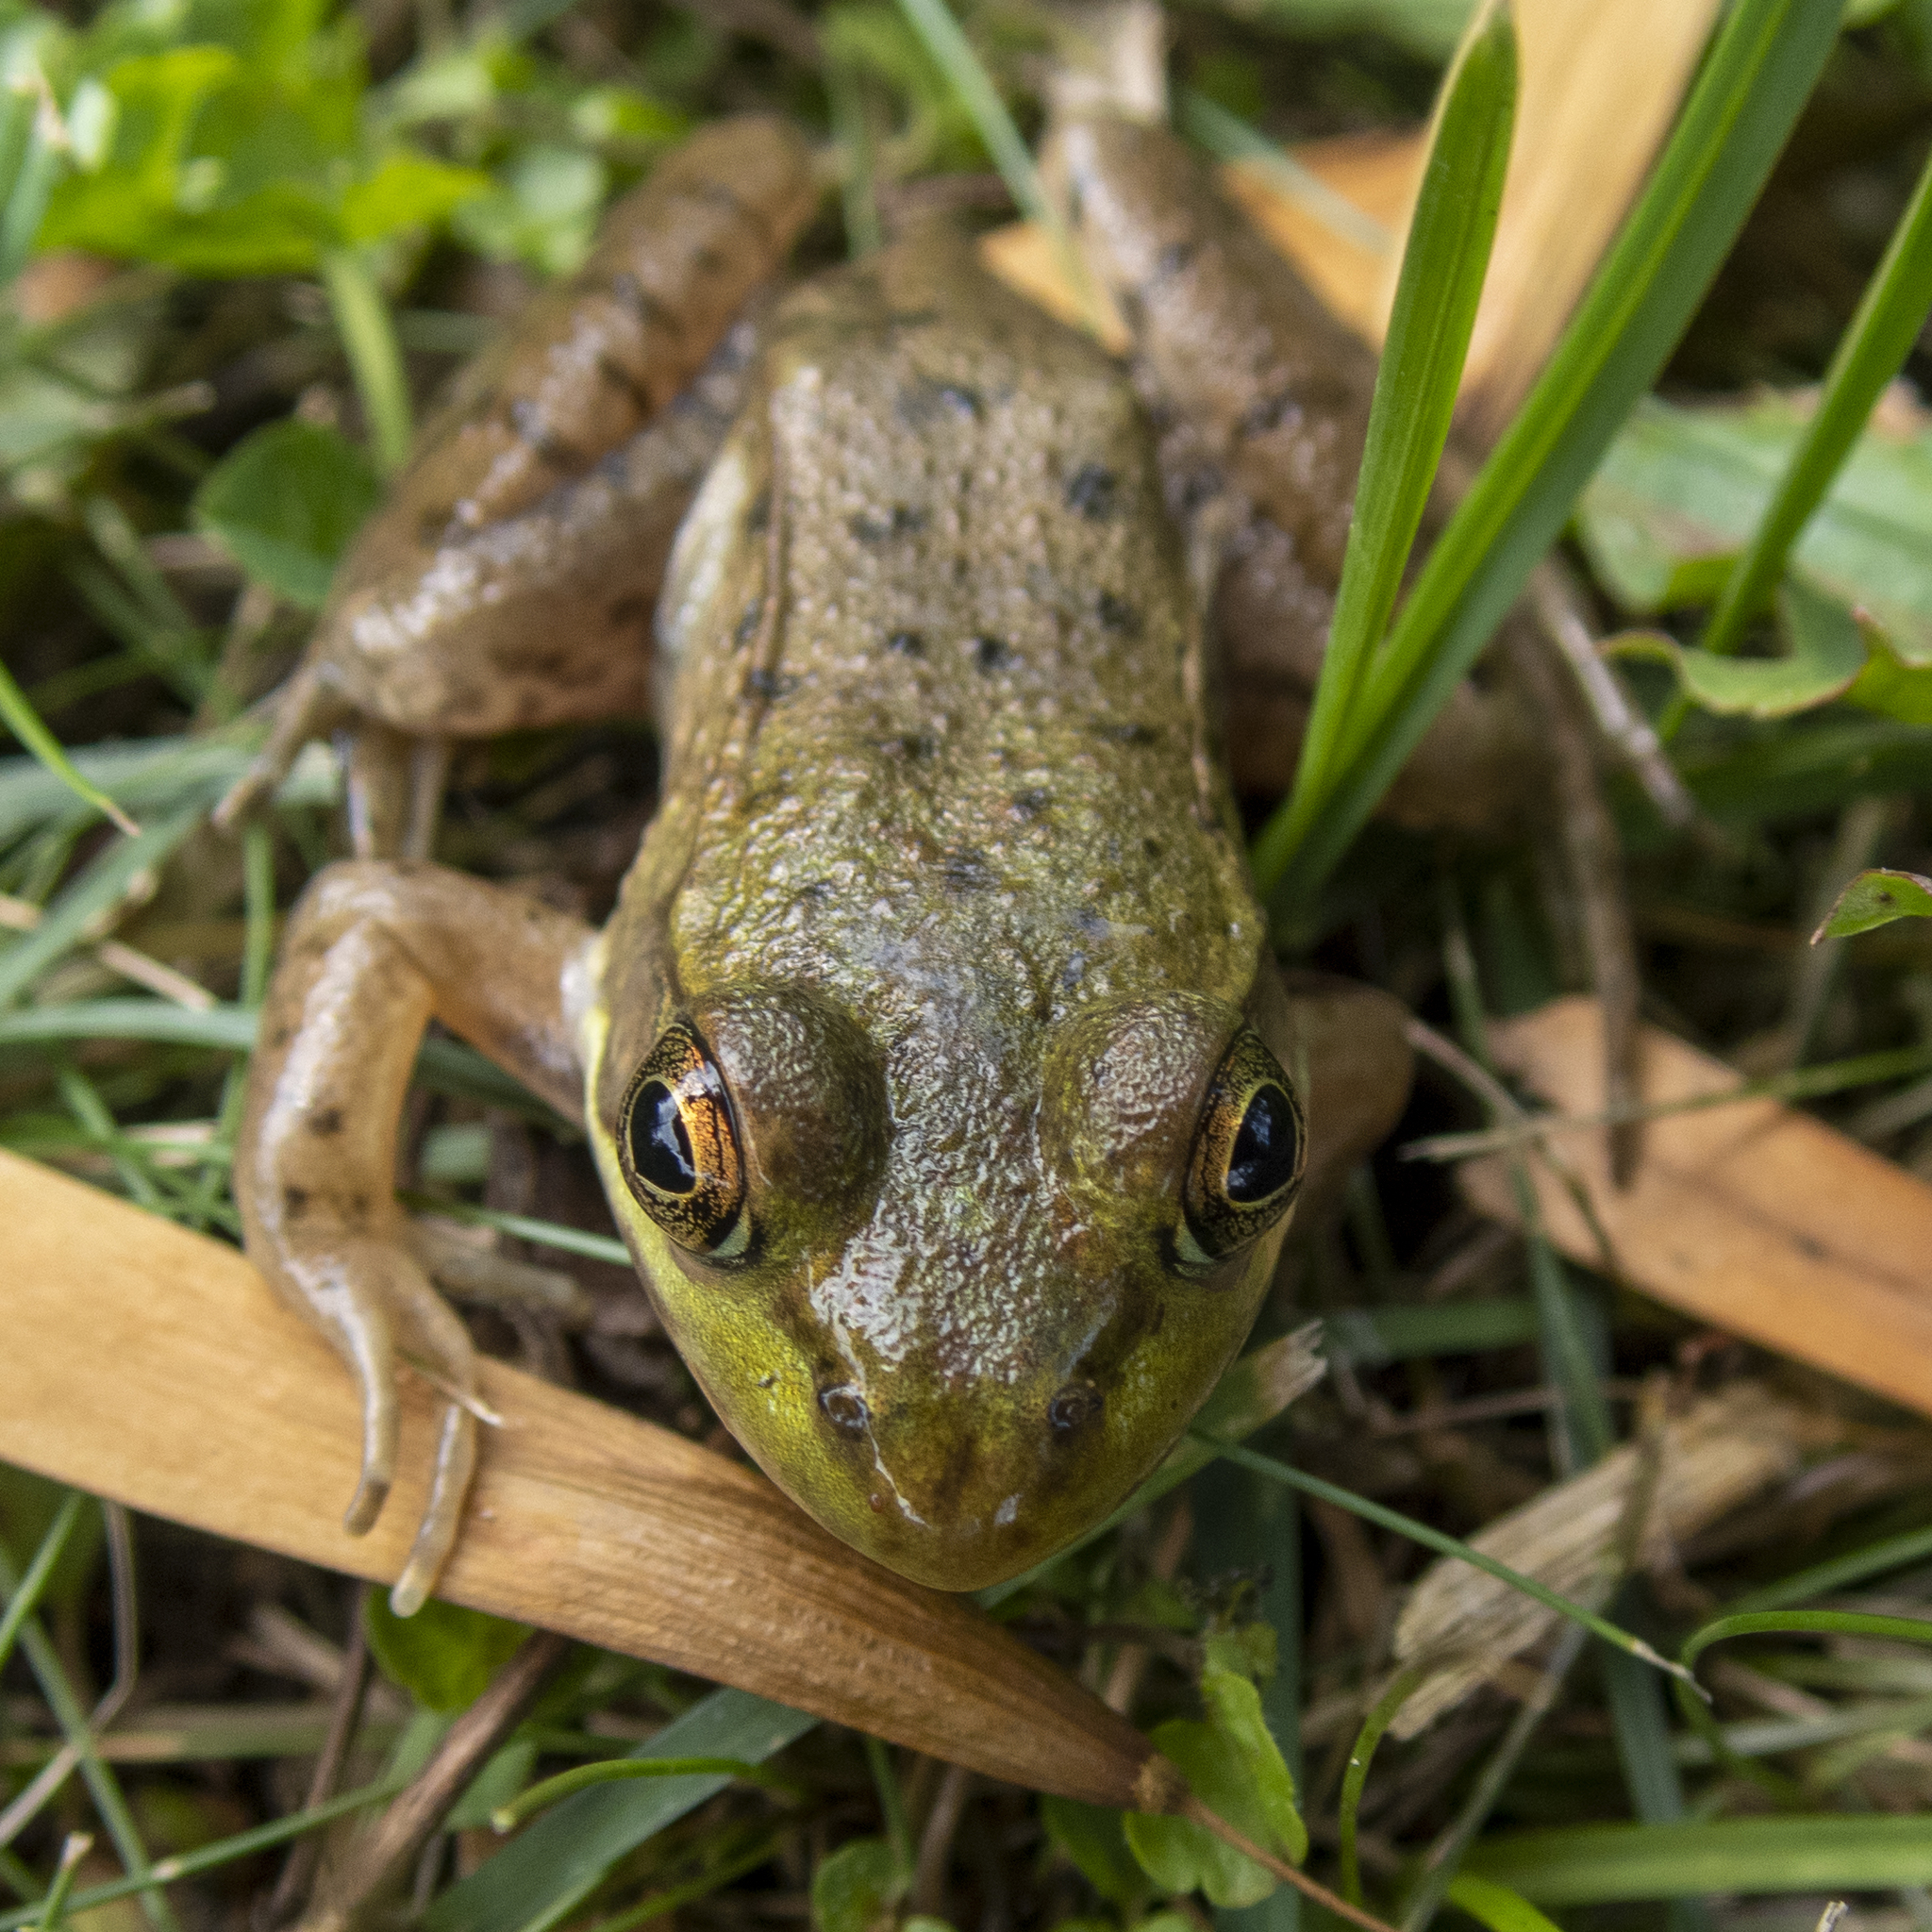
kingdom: Animalia
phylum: Chordata
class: Amphibia
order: Anura
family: Ranidae
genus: Lithobates
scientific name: Lithobates clamitans
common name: Green frog
